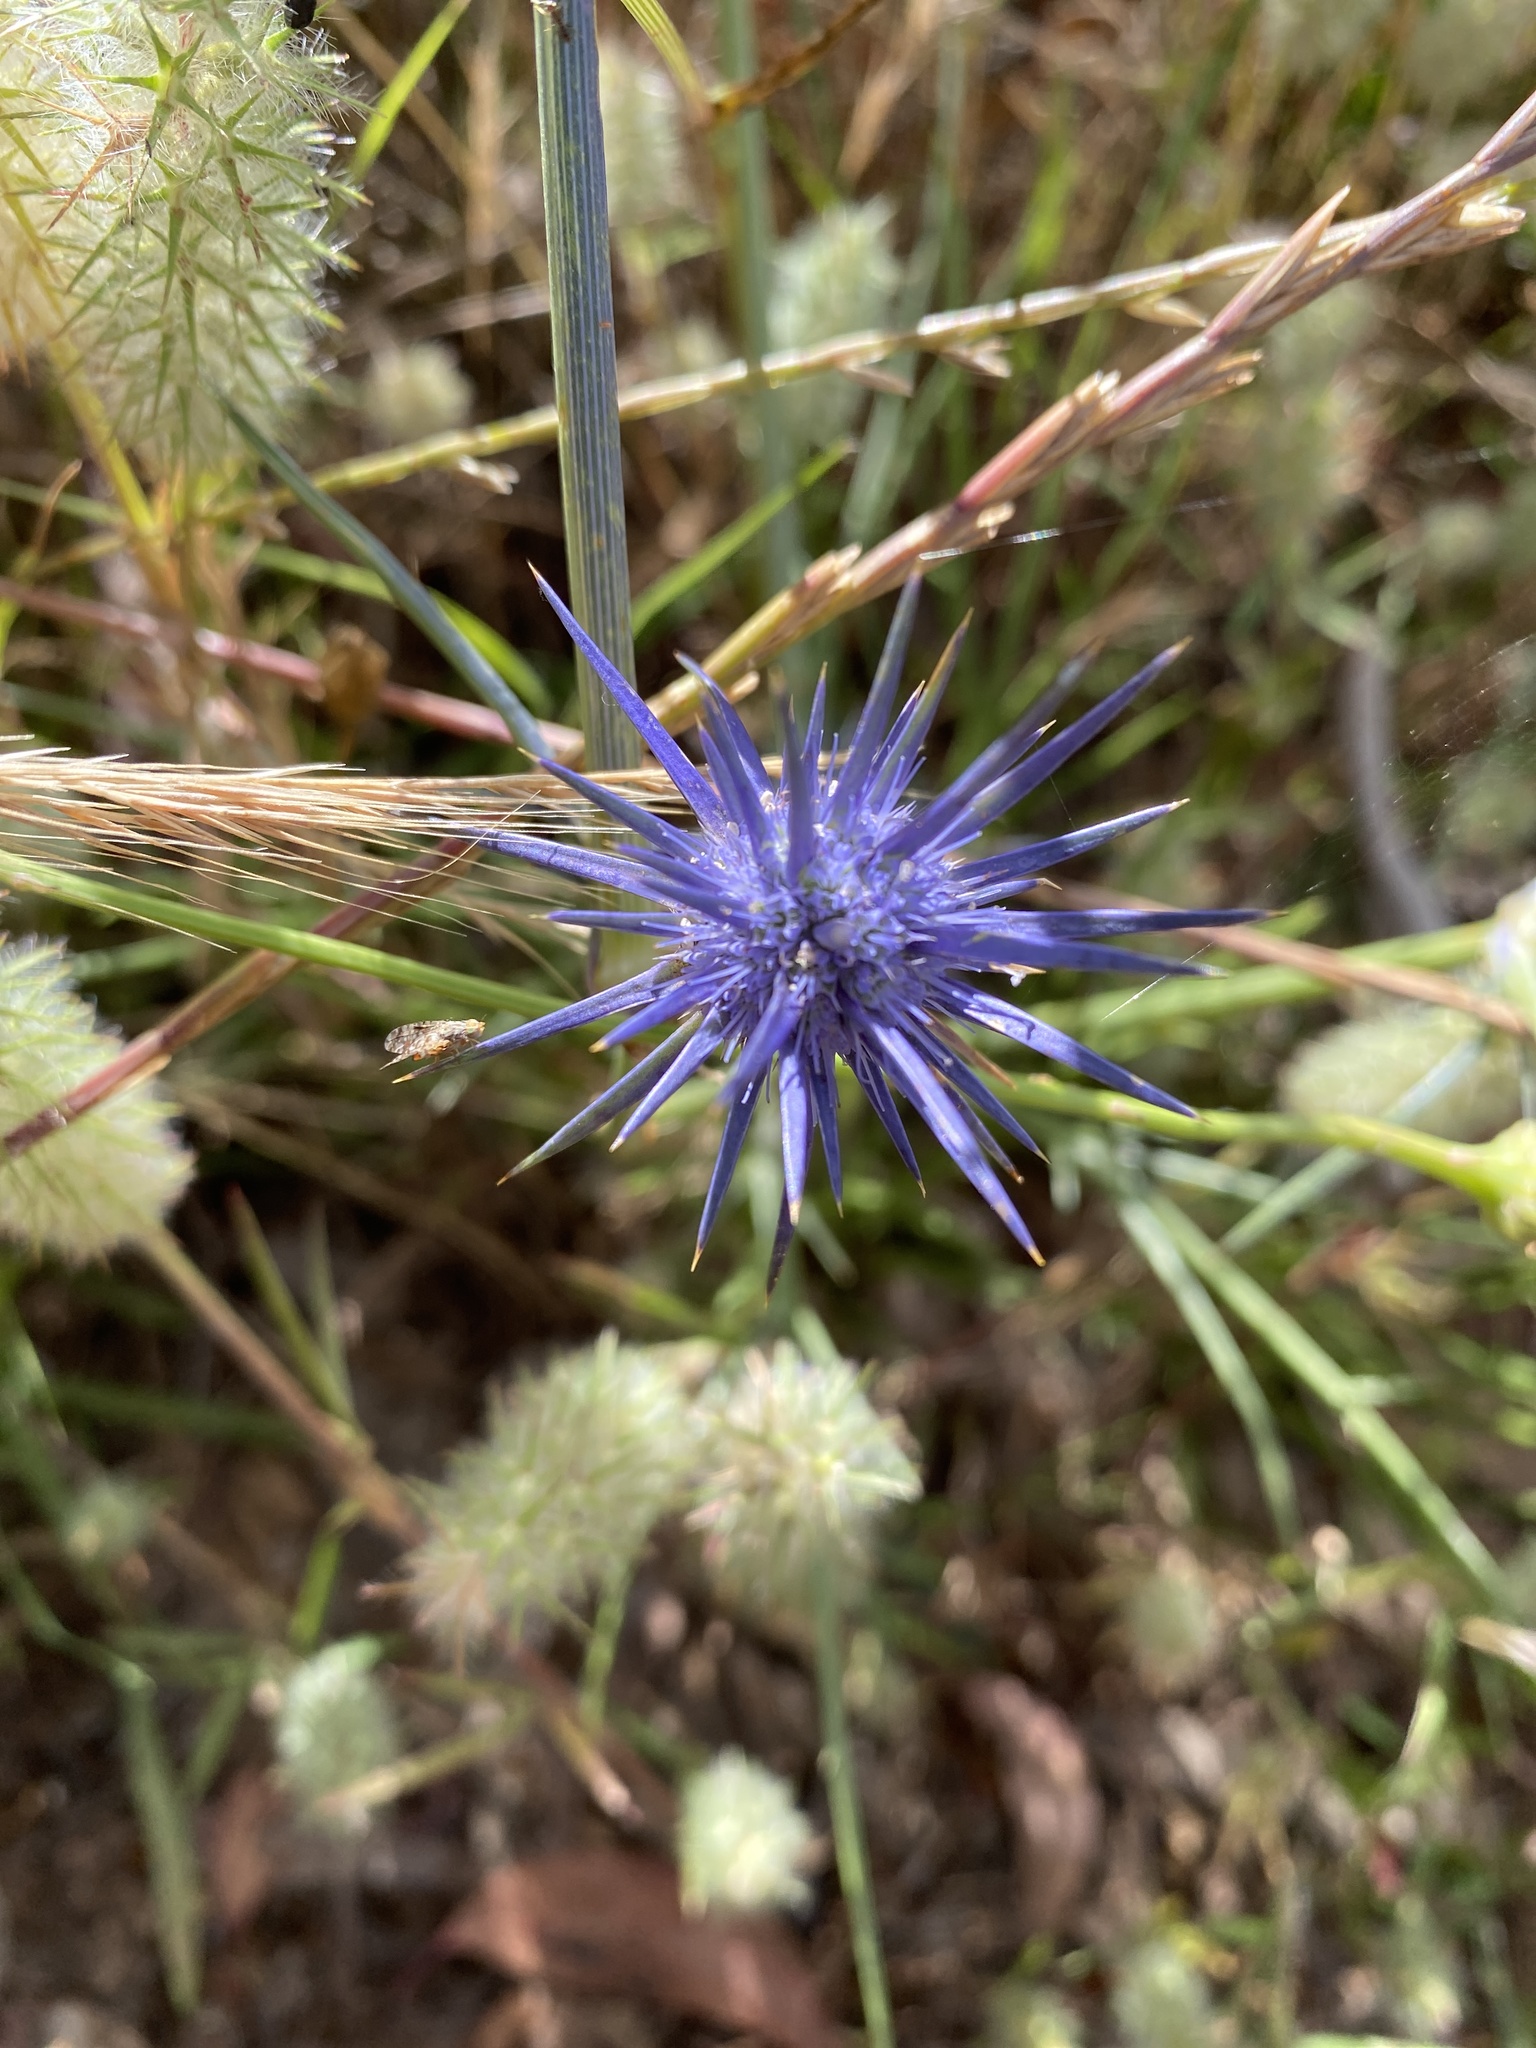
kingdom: Plantae
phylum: Tracheophyta
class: Magnoliopsida
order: Apiales
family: Apiaceae
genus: Eryngium
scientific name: Eryngium ovinum
